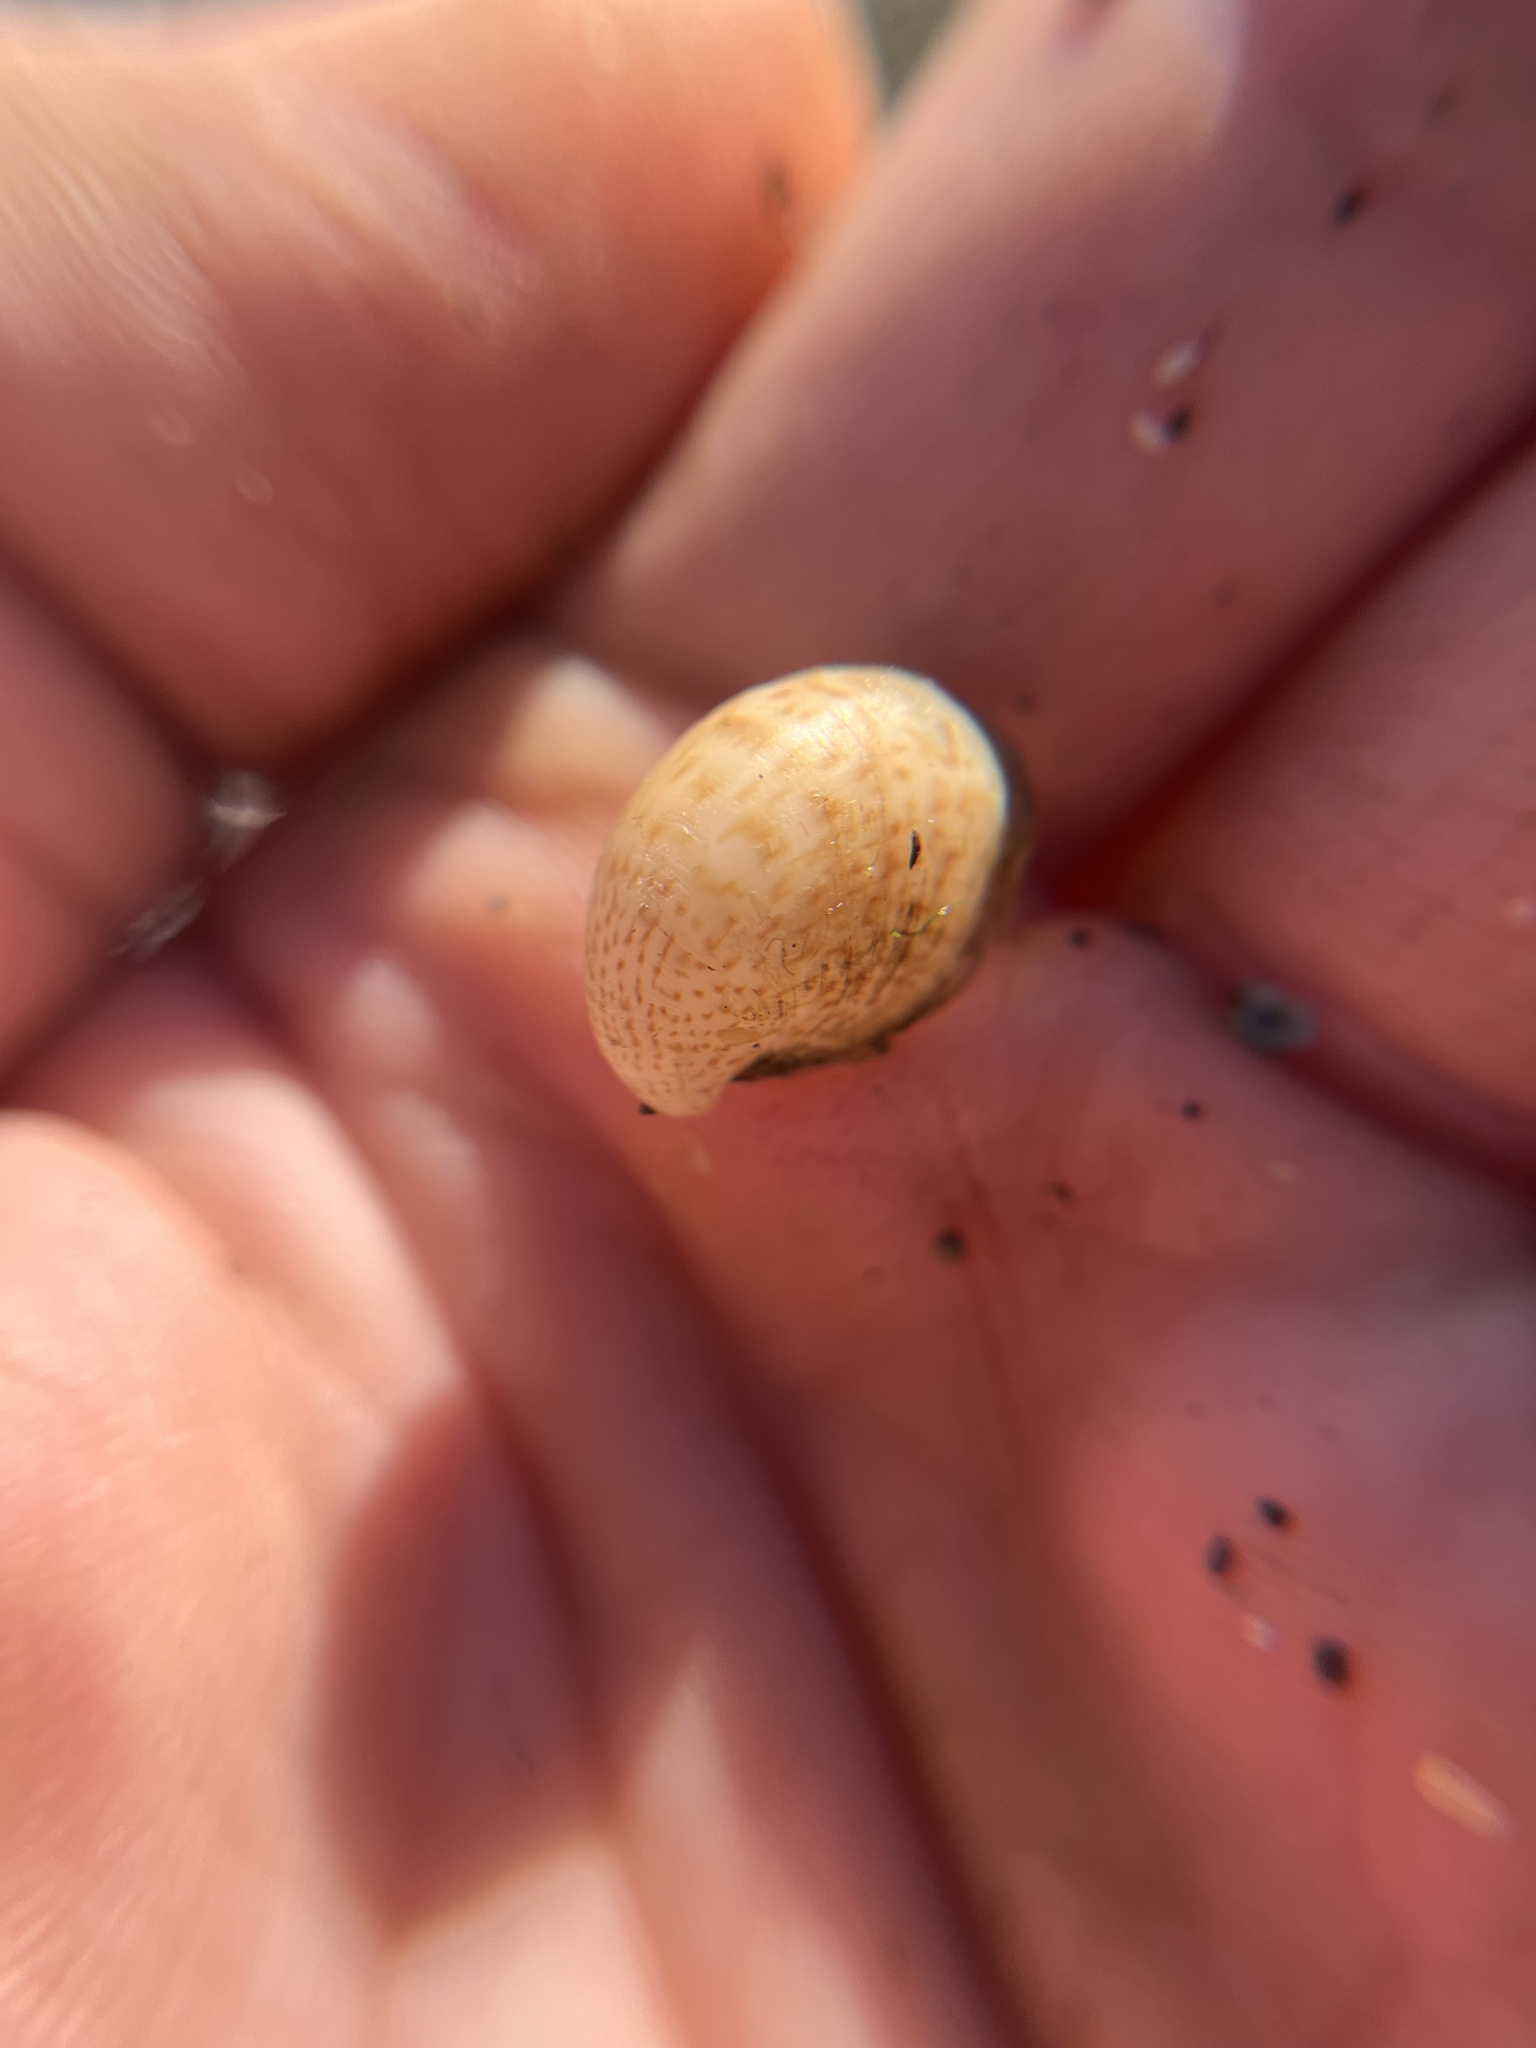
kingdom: Animalia
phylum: Mollusca
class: Gastropoda
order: Littorinimorpha
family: Calyptraeidae
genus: Crepidula
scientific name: Crepidula convexa
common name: Convex slippersnail
